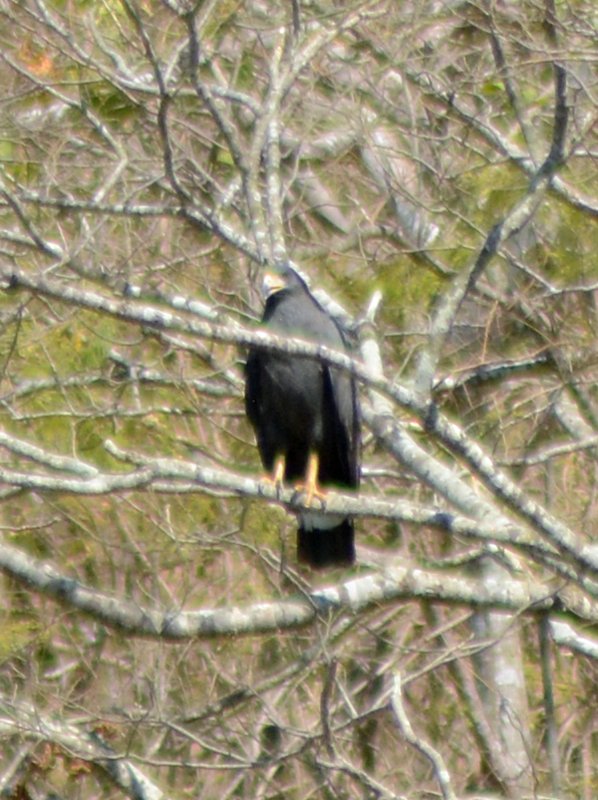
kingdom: Animalia
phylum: Chordata
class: Aves
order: Accipitriformes
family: Accipitridae
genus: Buteogallus
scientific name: Buteogallus anthracinus
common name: Common black hawk
